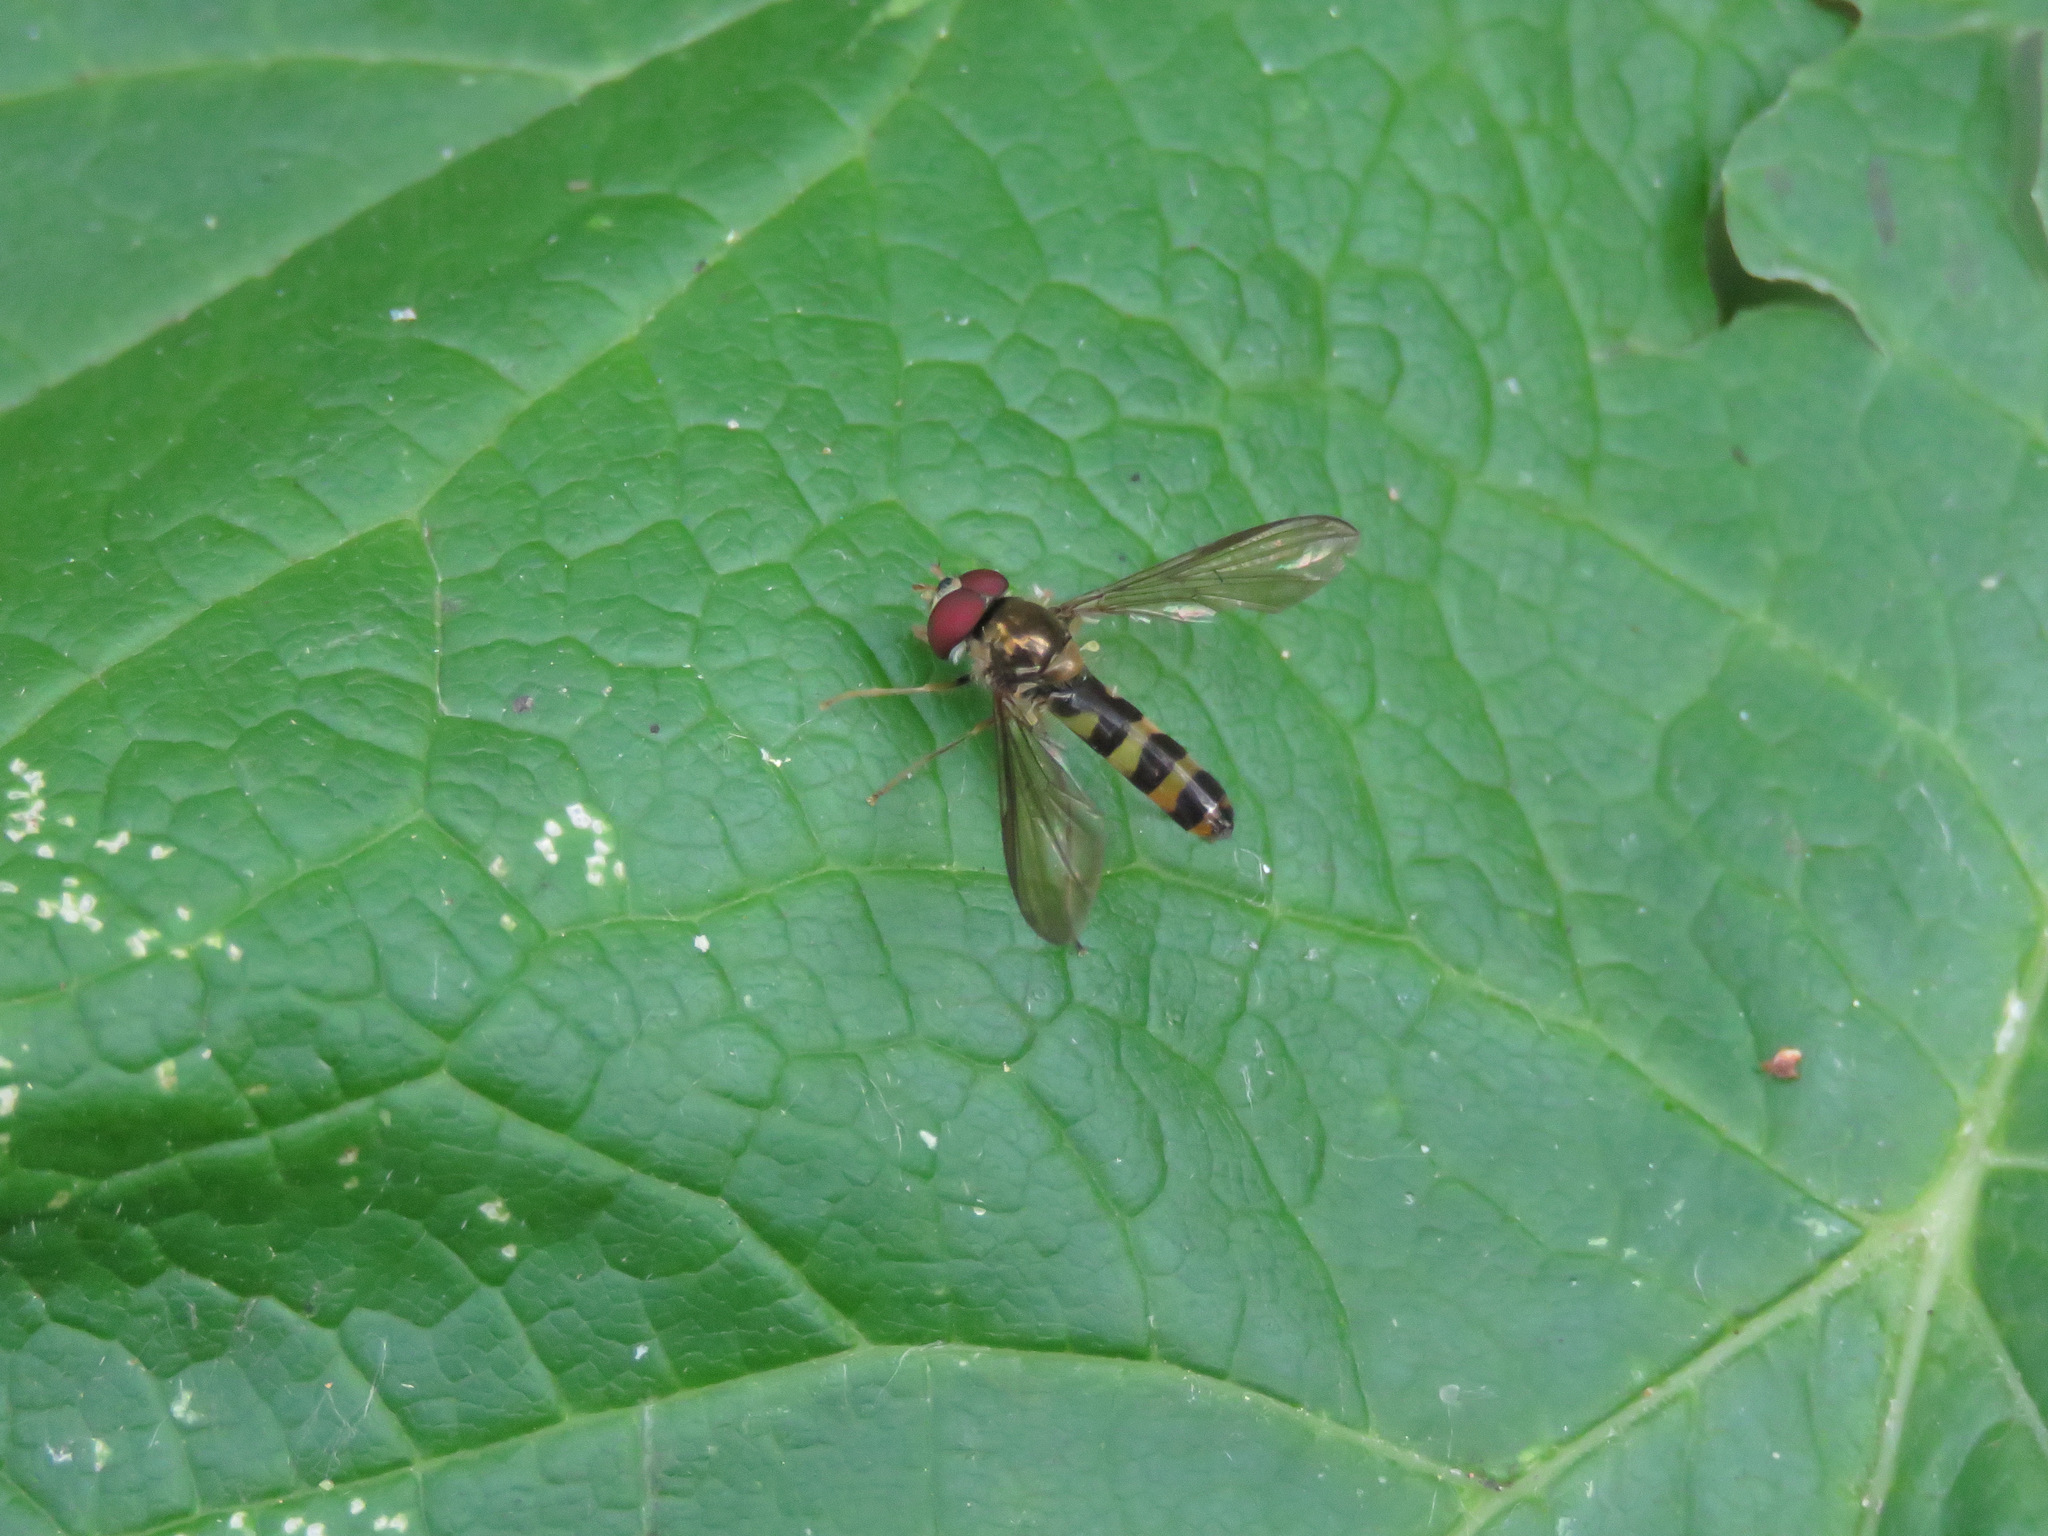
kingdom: Animalia
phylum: Arthropoda
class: Insecta
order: Diptera
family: Syrphidae
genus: Meliscaeva
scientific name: Meliscaeva cinctella
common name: American thintail fly
